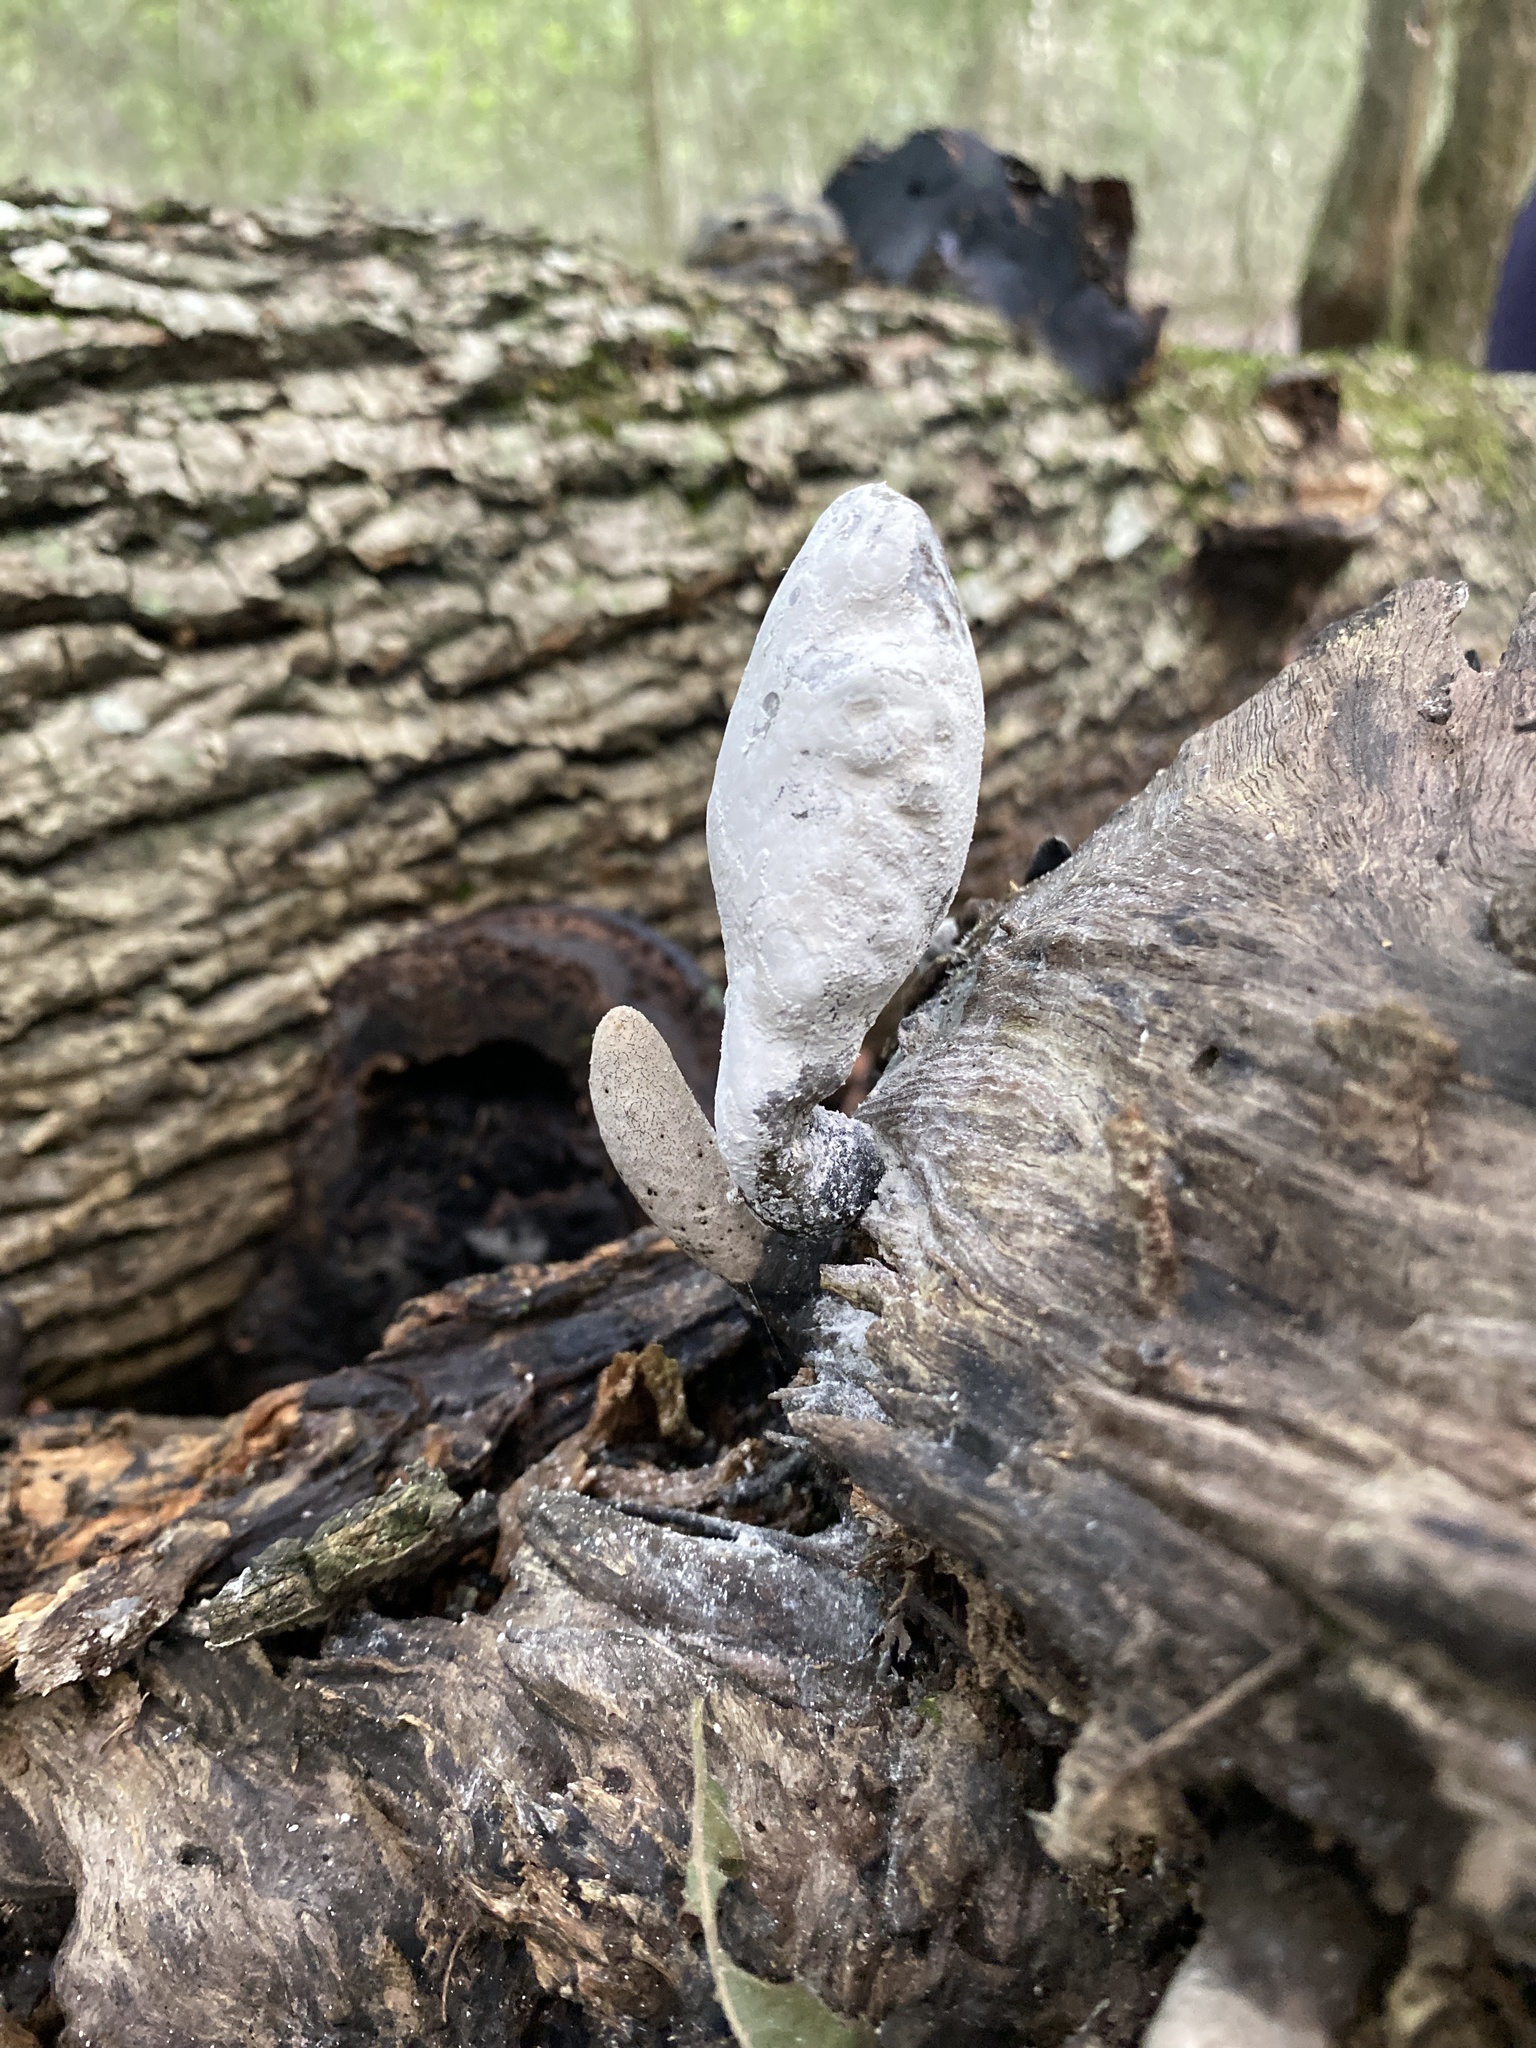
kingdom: Fungi
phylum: Ascomycota
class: Sordariomycetes
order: Xylariales
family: Xylariaceae
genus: Xylosphaera
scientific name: Xylosphaera poitei
